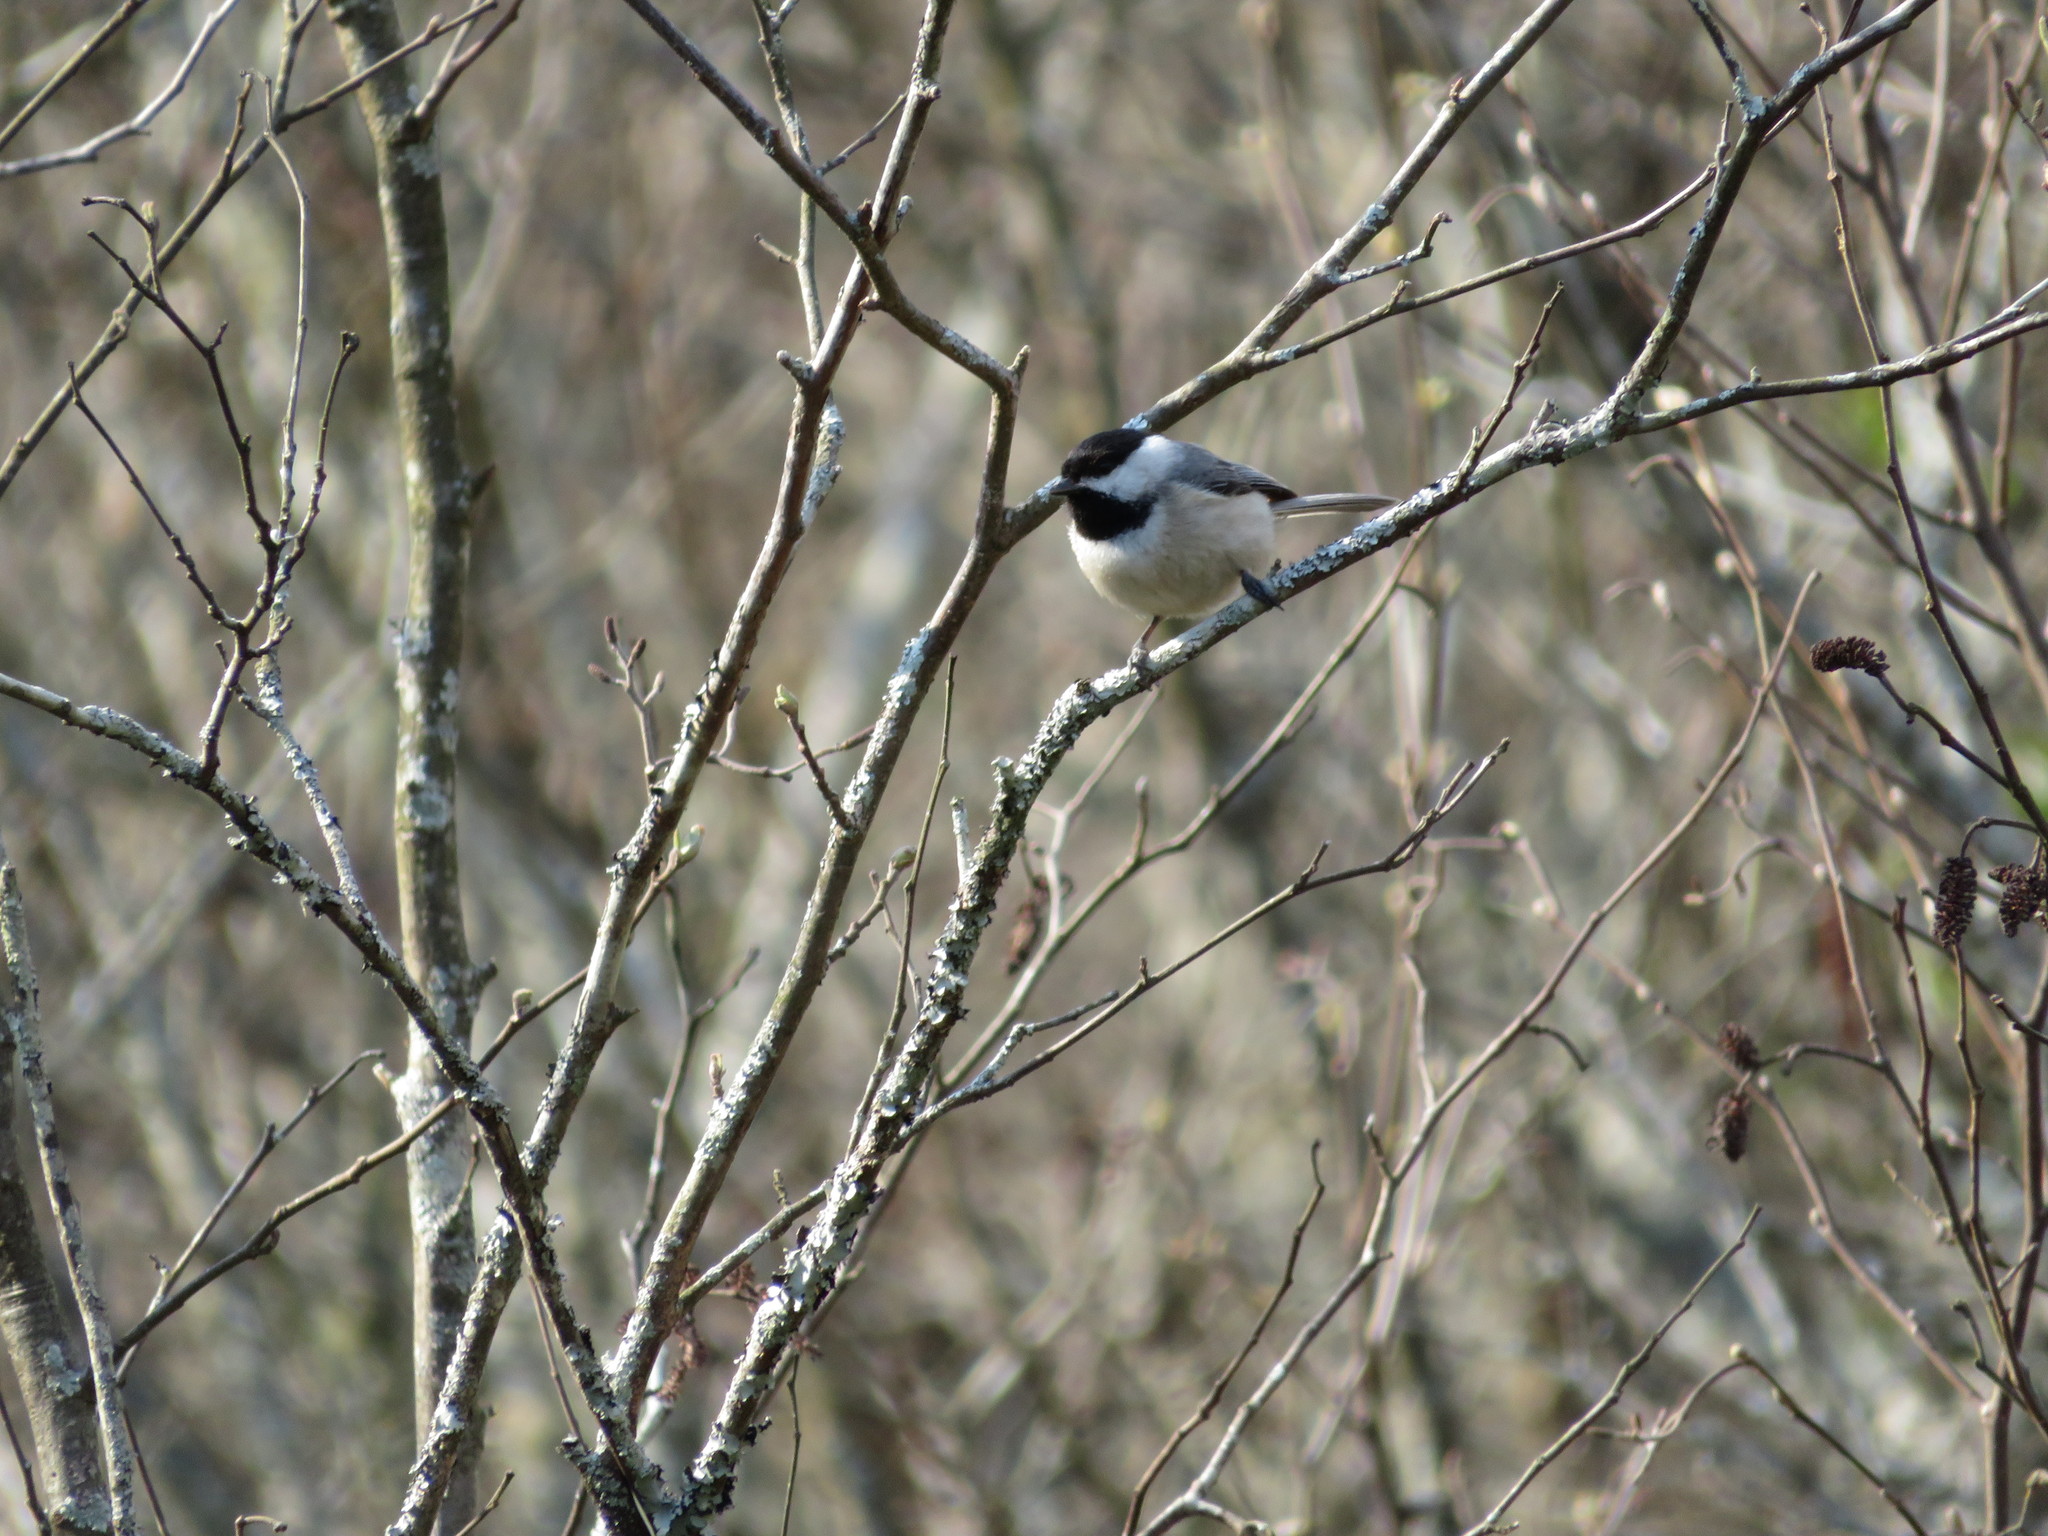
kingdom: Animalia
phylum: Chordata
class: Aves
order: Passeriformes
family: Paridae
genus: Poecile
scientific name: Poecile carolinensis
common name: Carolina chickadee
